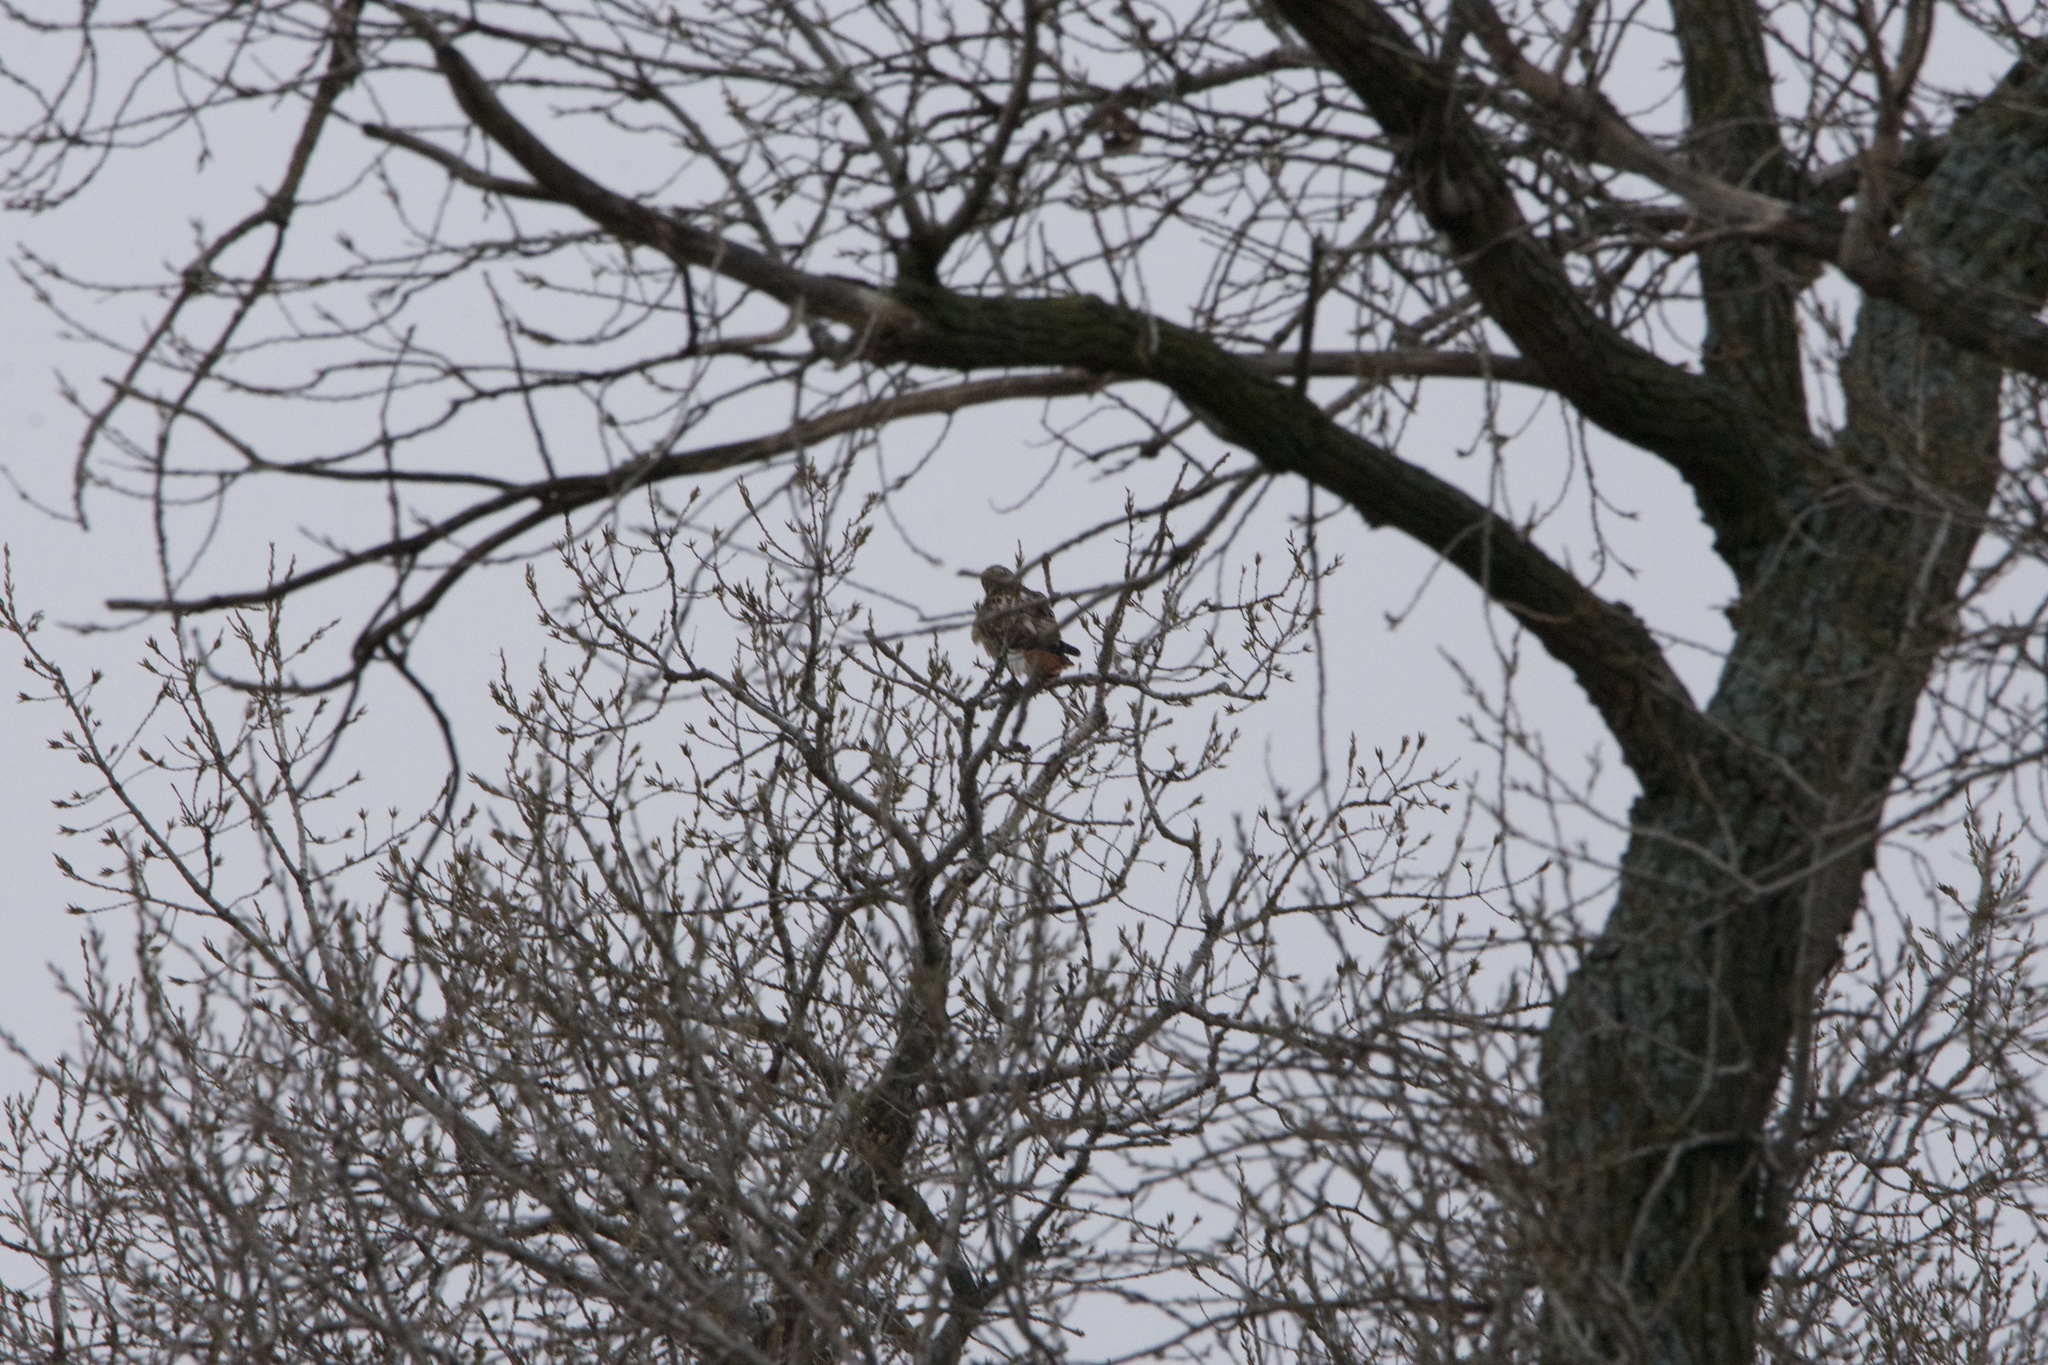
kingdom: Animalia
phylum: Chordata
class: Aves
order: Accipitriformes
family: Accipitridae
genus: Buteo
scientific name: Buteo jamaicensis
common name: Red-tailed hawk
